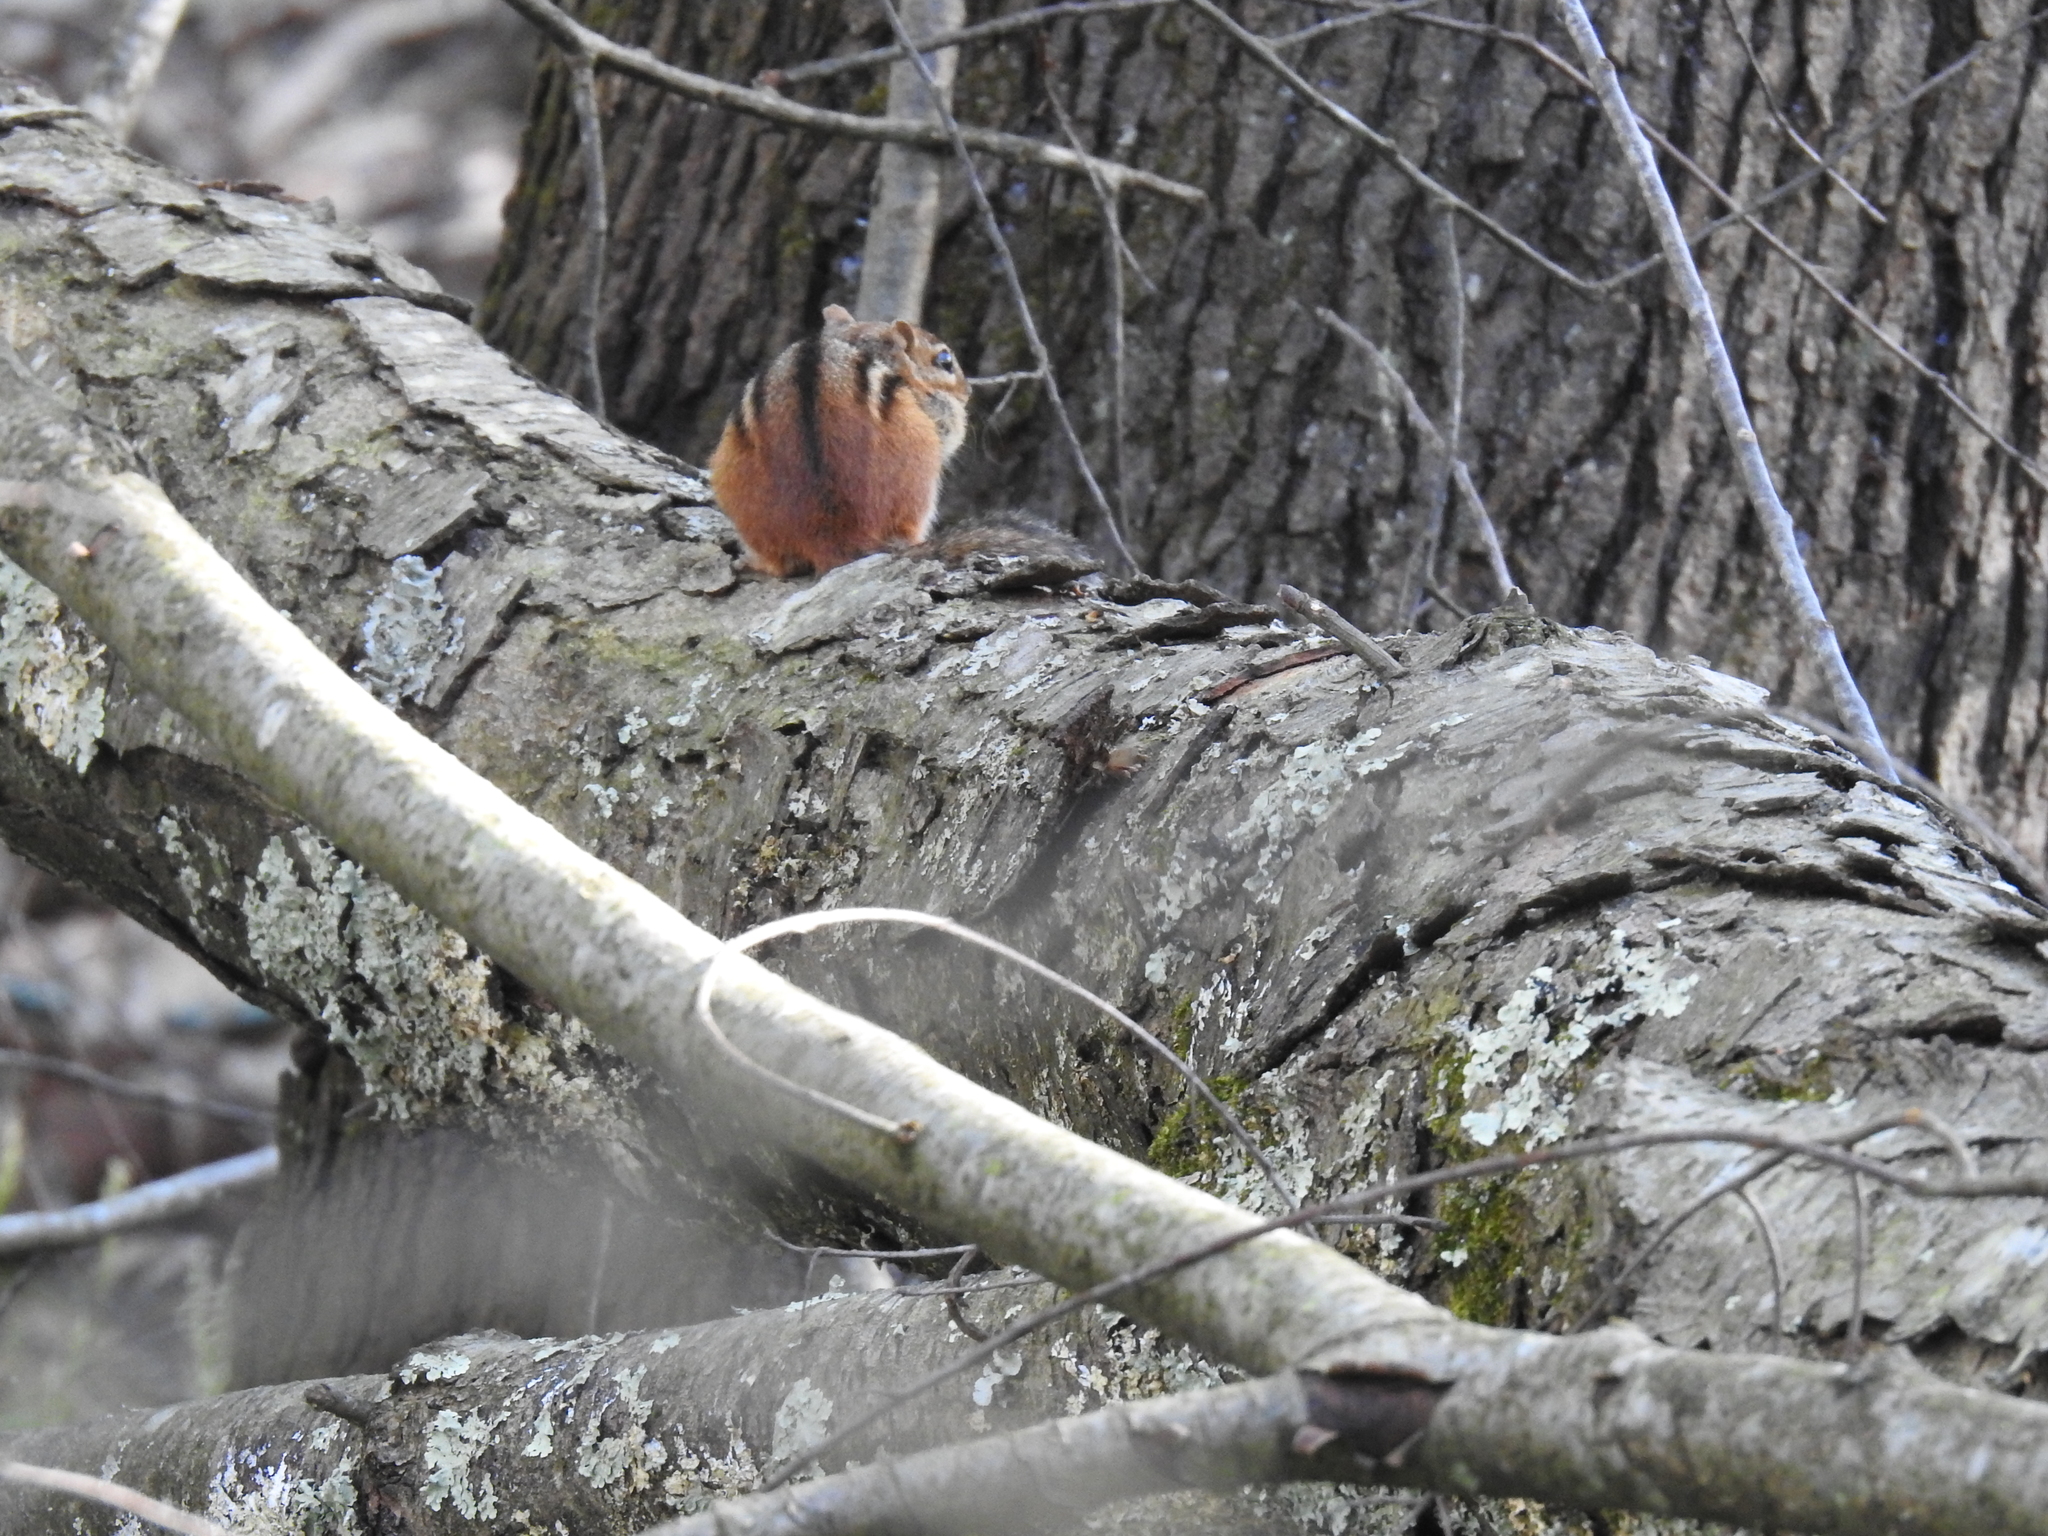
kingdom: Animalia
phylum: Chordata
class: Mammalia
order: Rodentia
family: Sciuridae
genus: Tamias
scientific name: Tamias striatus
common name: Eastern chipmunk
